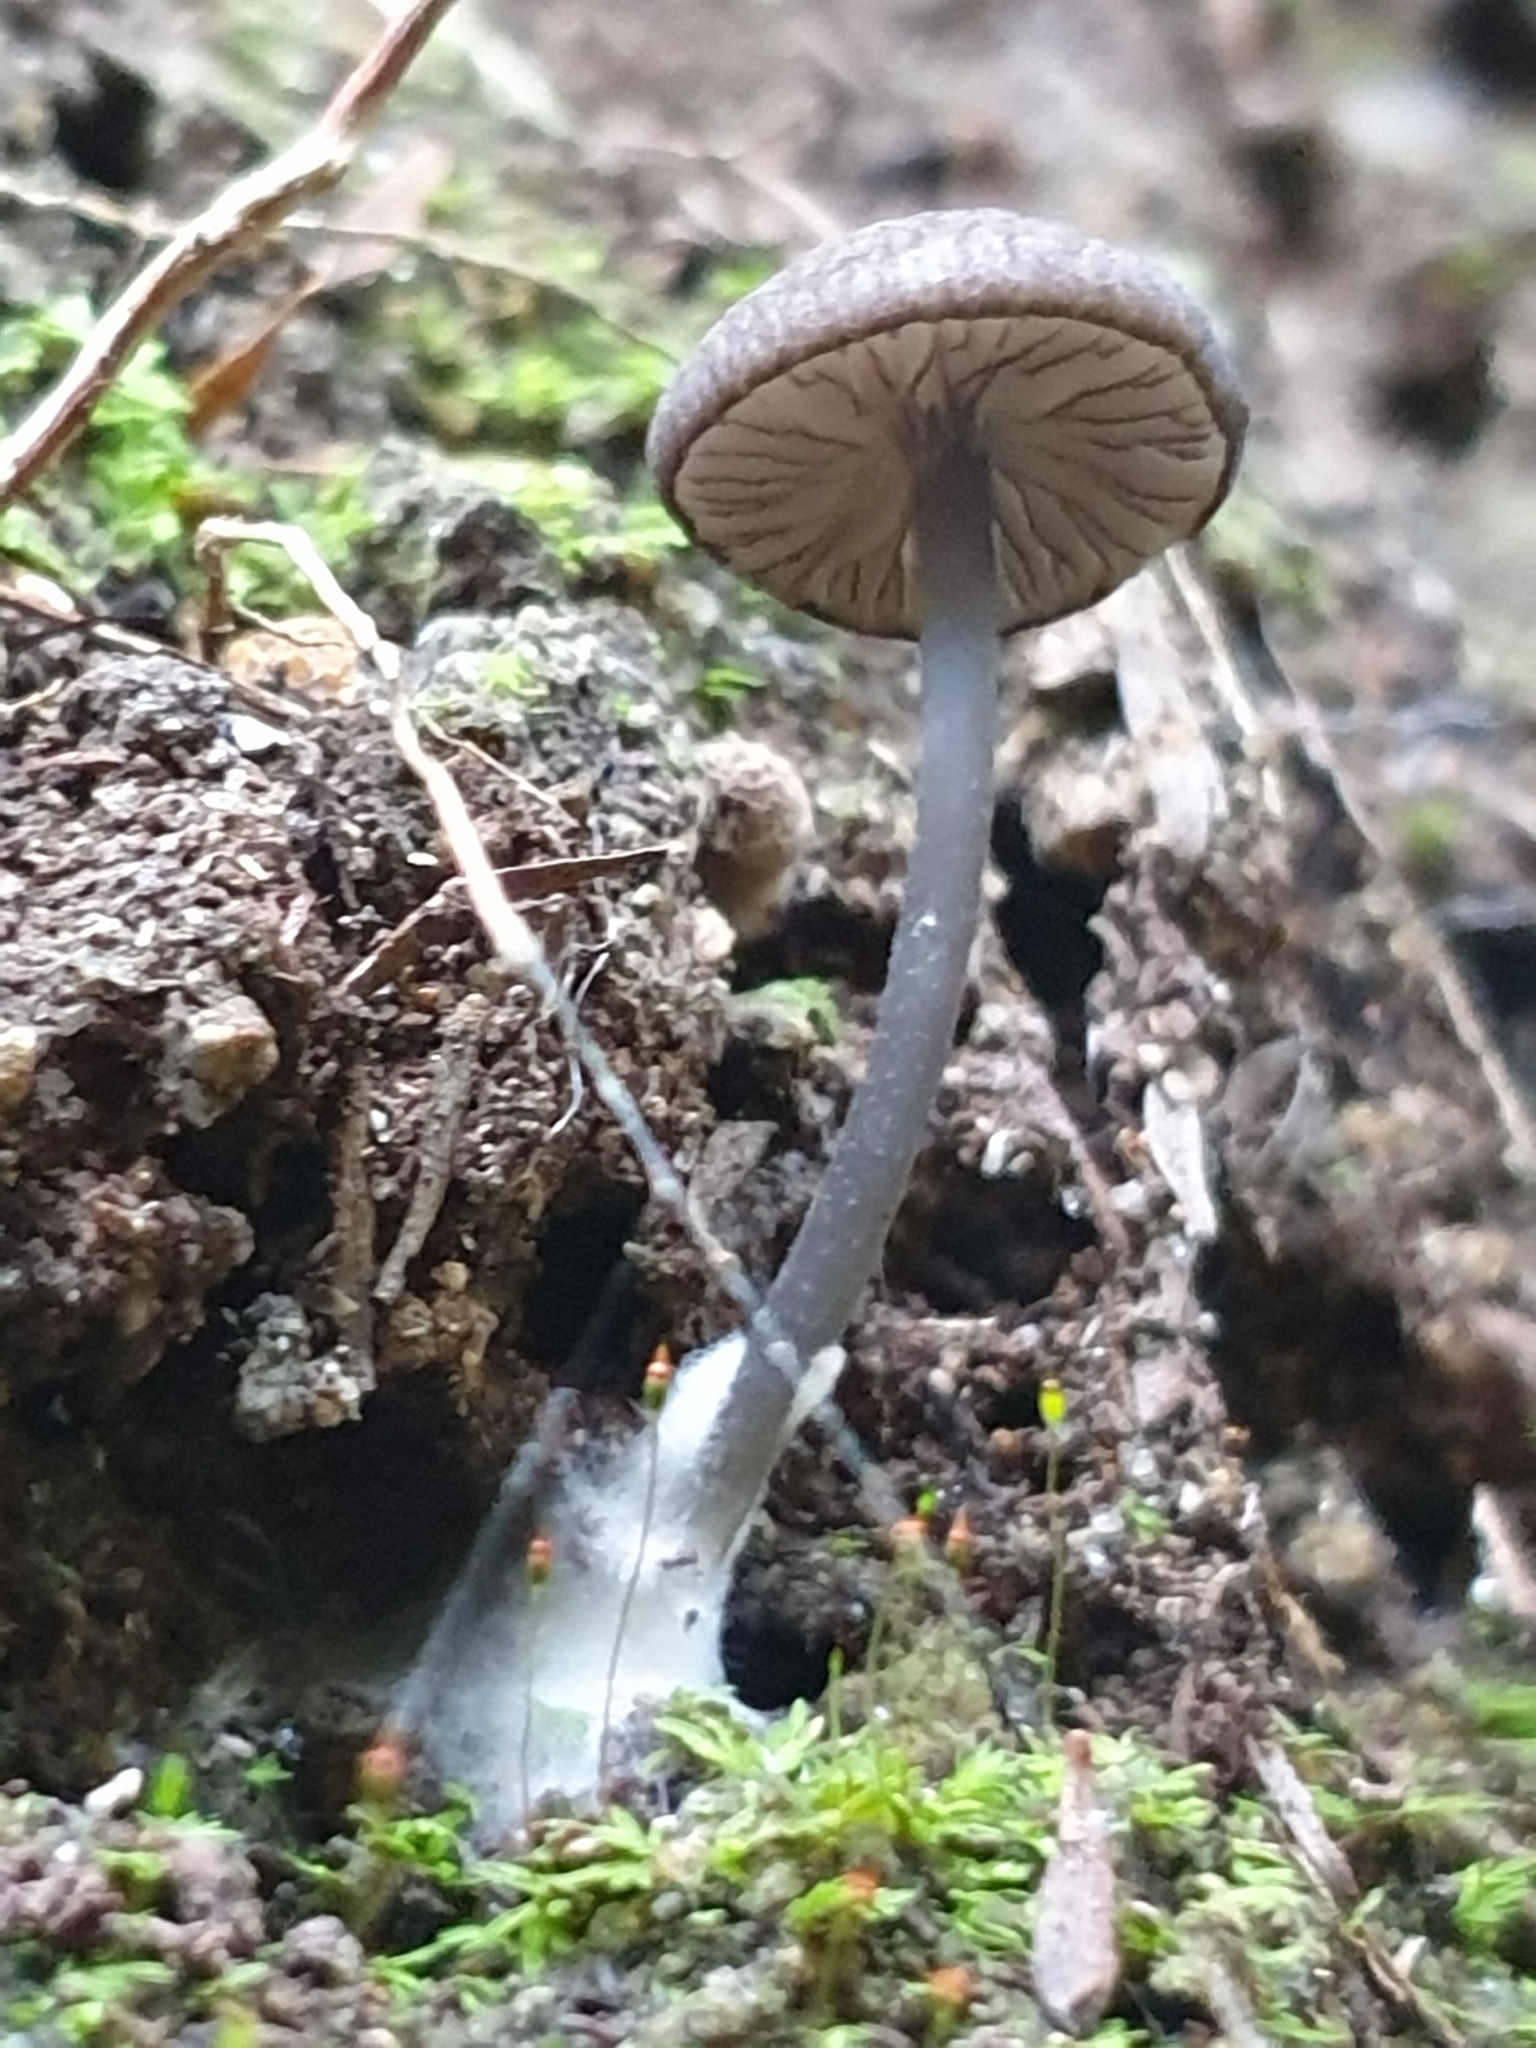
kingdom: Fungi
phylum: Basidiomycota
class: Agaricomycetes
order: Agaricales
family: Entolomataceae
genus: Entoloma
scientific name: Entoloma duplocoloratum
